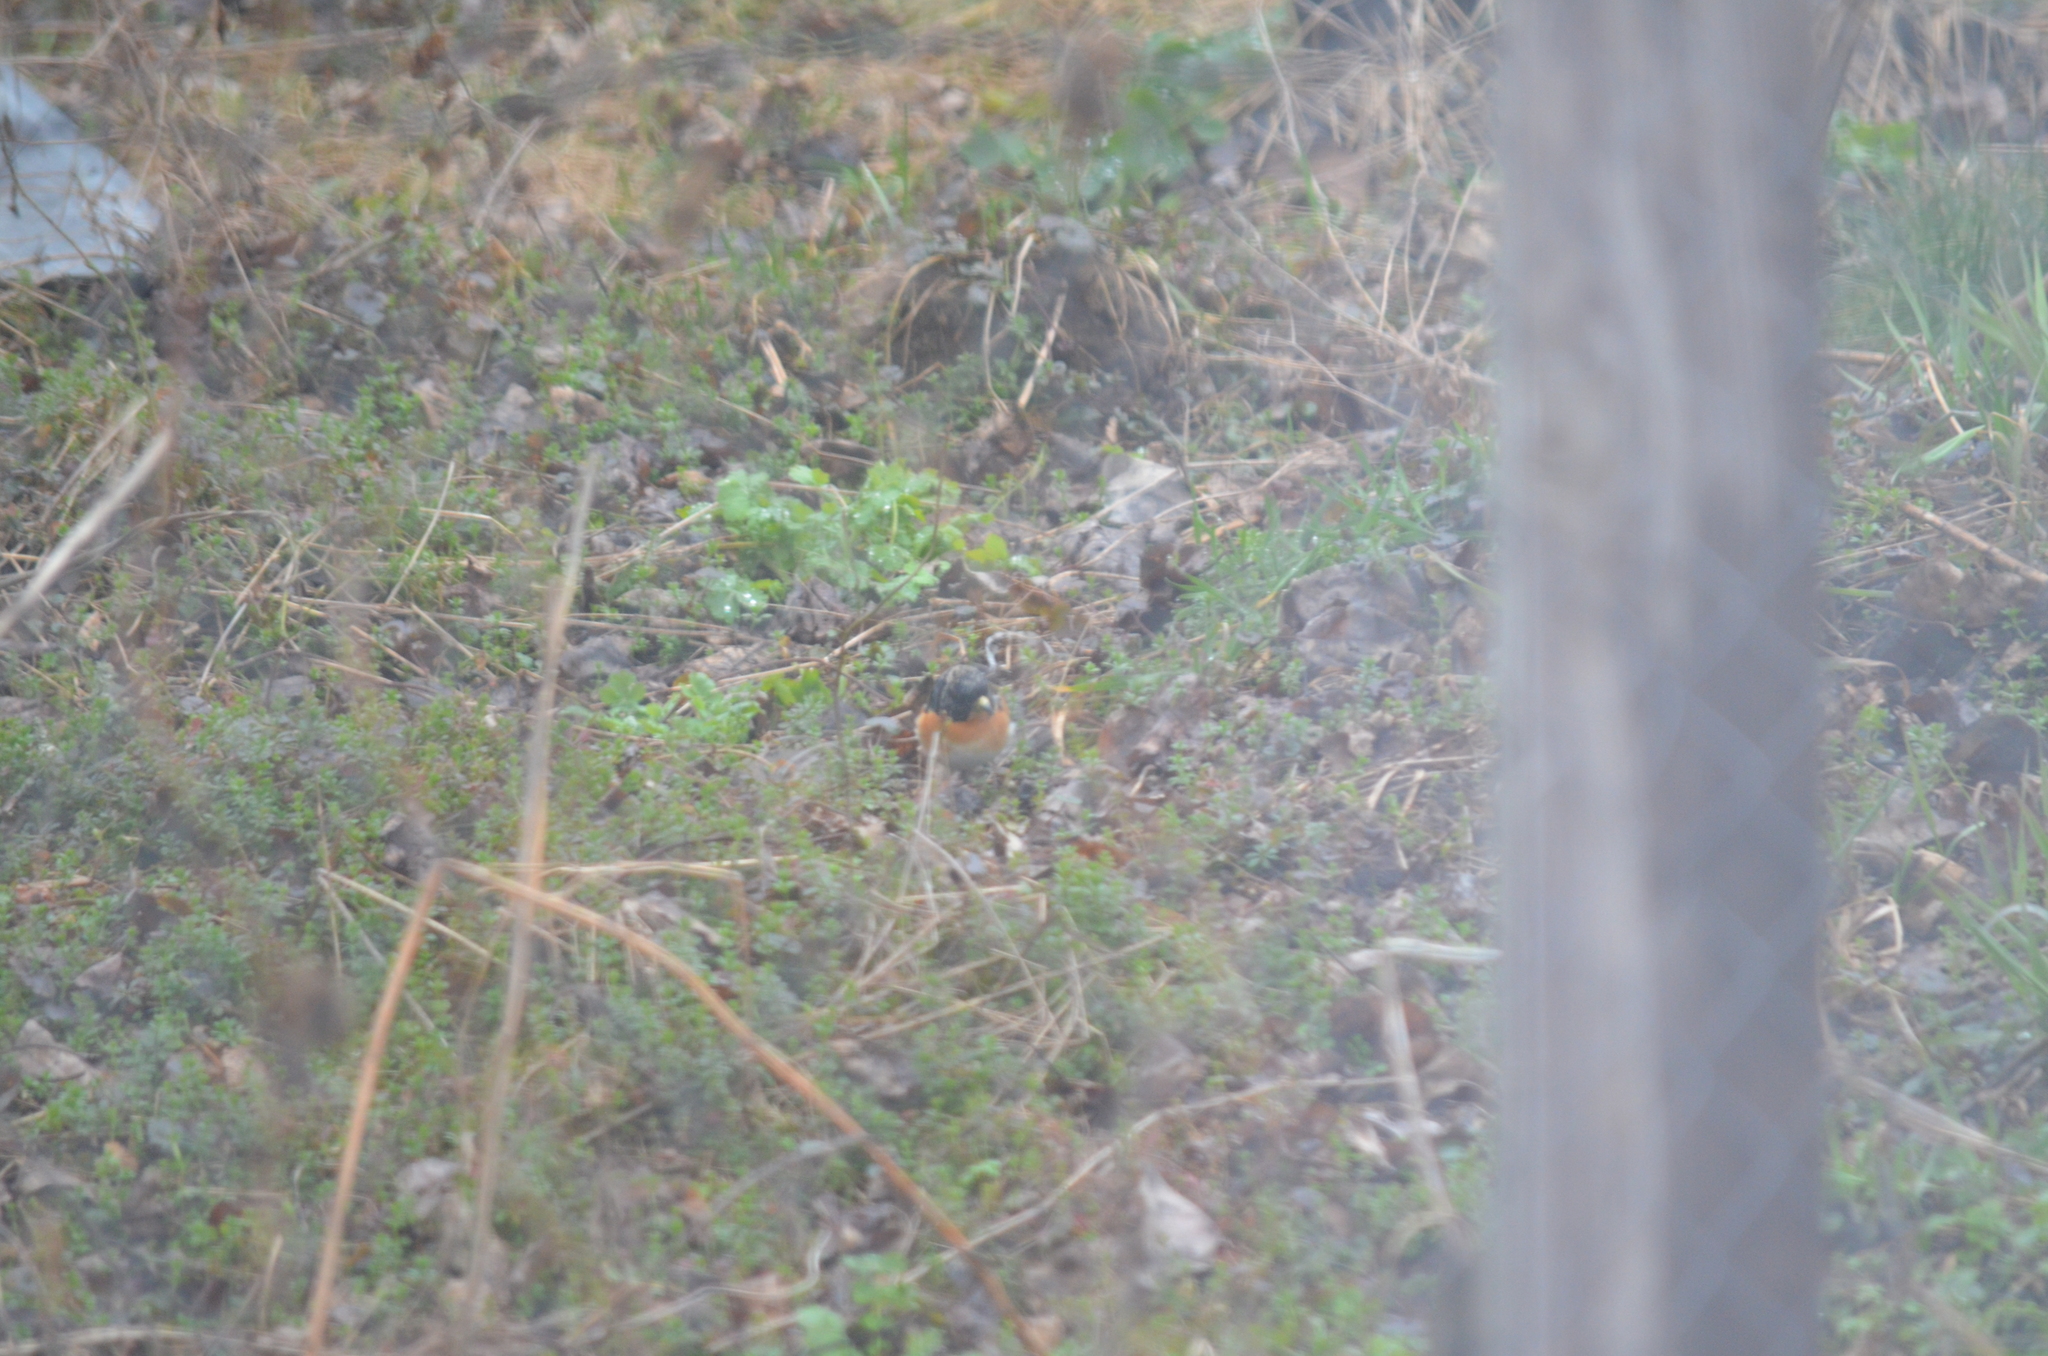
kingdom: Animalia
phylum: Chordata
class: Aves
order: Passeriformes
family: Fringillidae
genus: Fringilla
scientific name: Fringilla montifringilla
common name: Brambling
